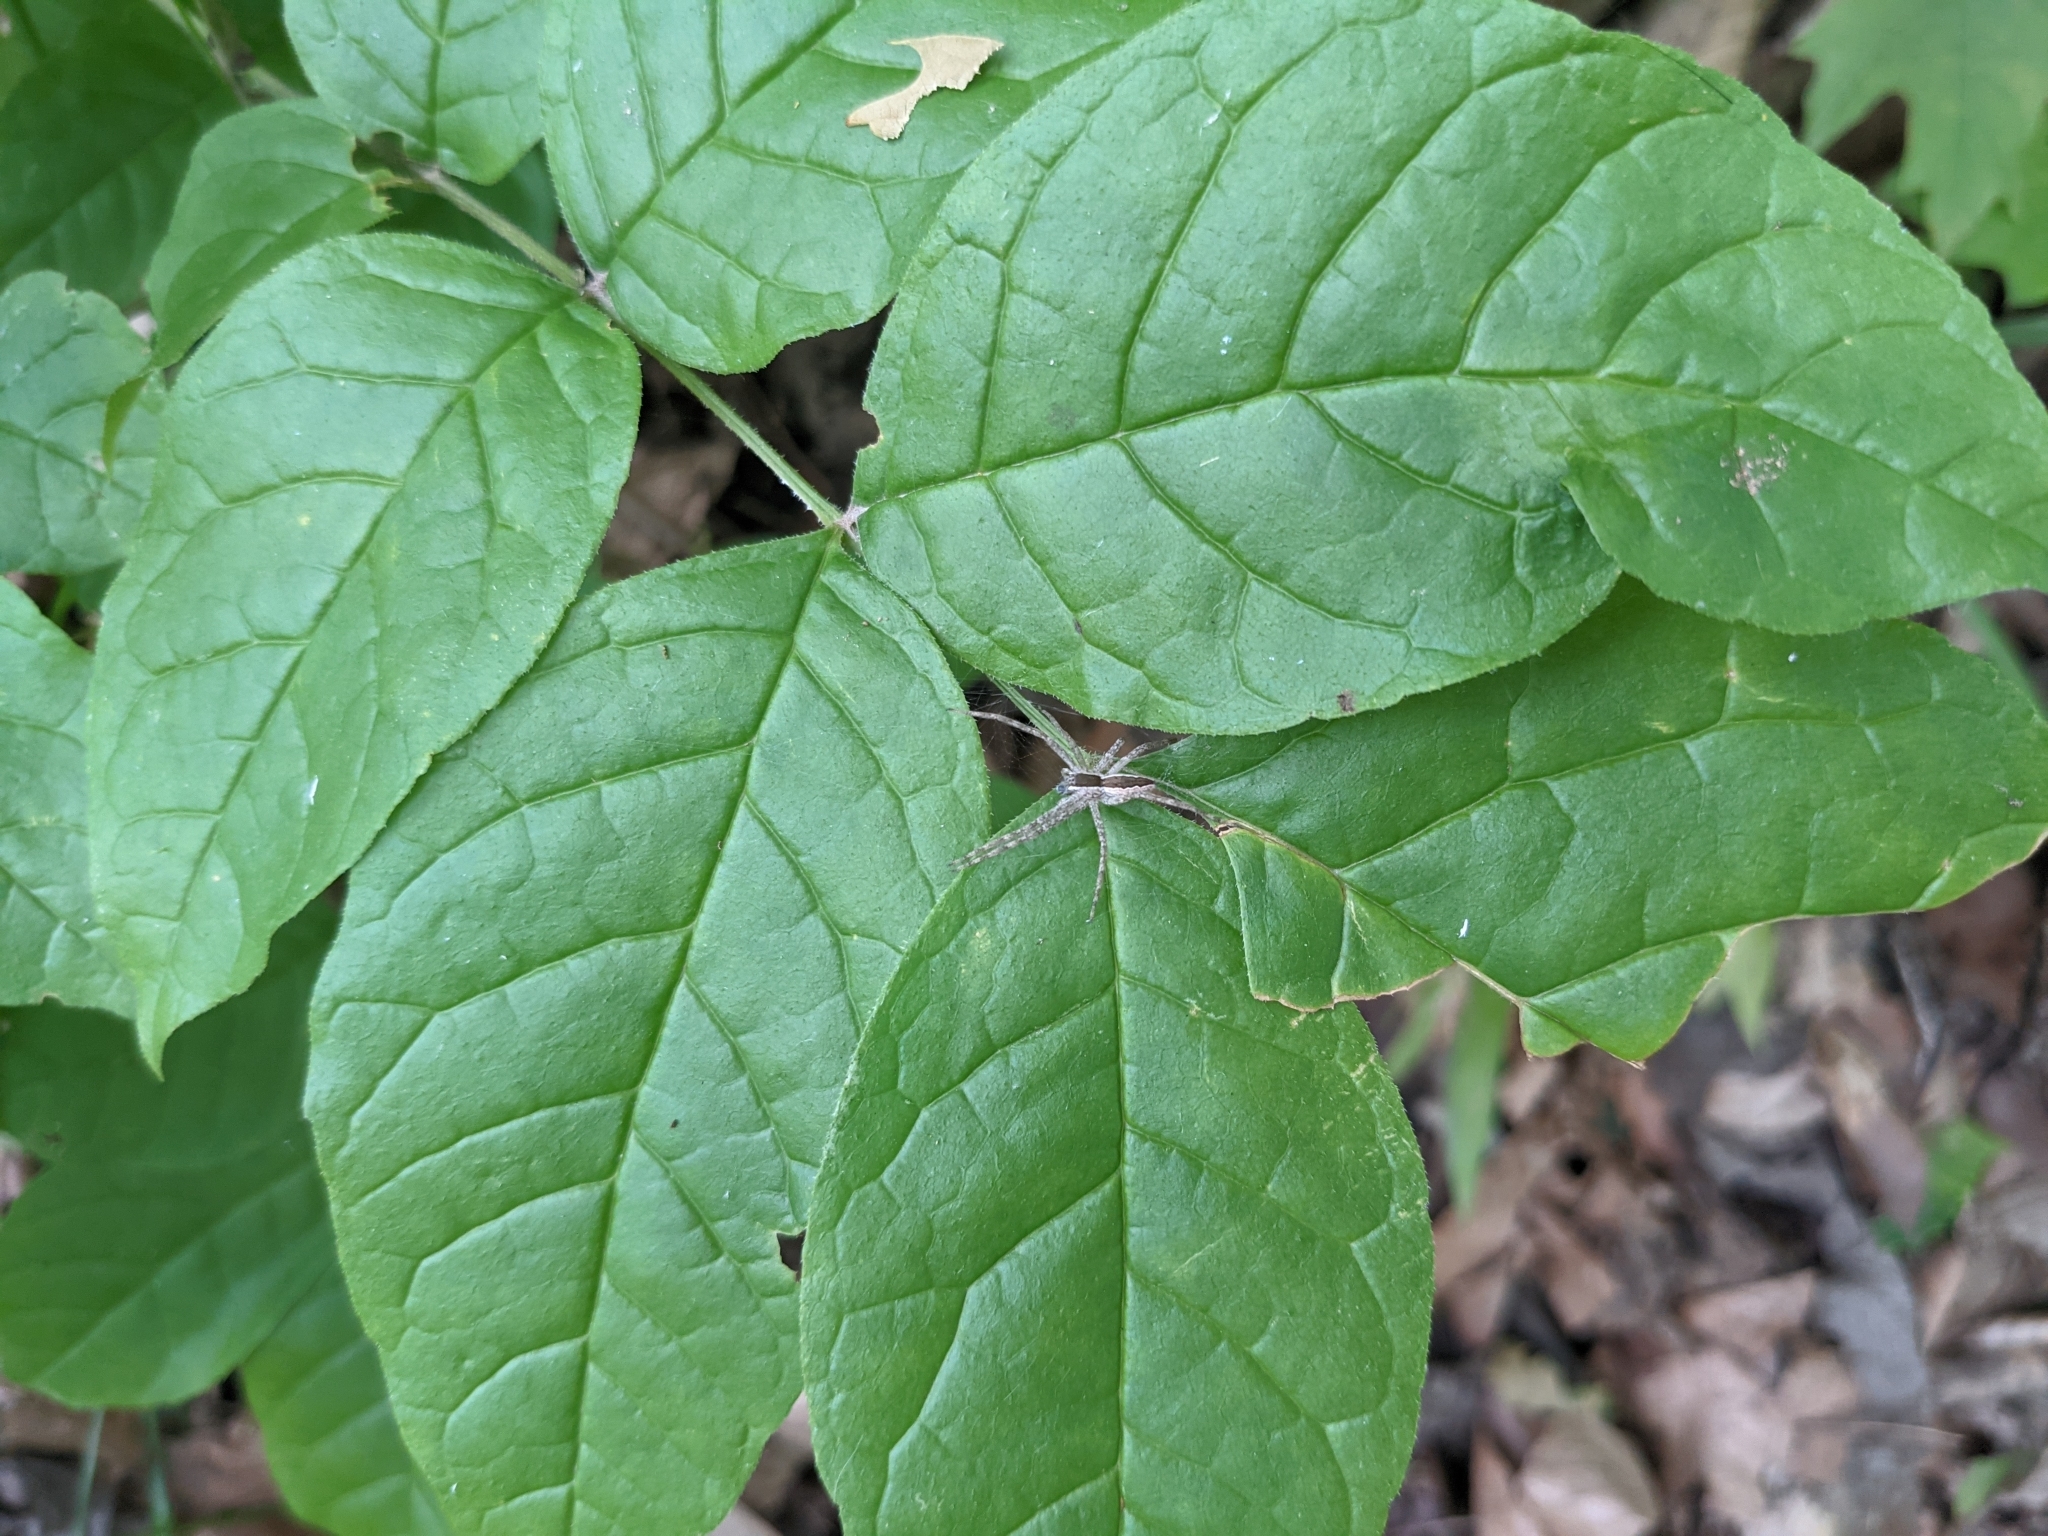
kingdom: Animalia
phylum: Arthropoda
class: Arachnida
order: Araneae
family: Pisauridae
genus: Pisaurina
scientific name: Pisaurina mira
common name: American nursery web spider
